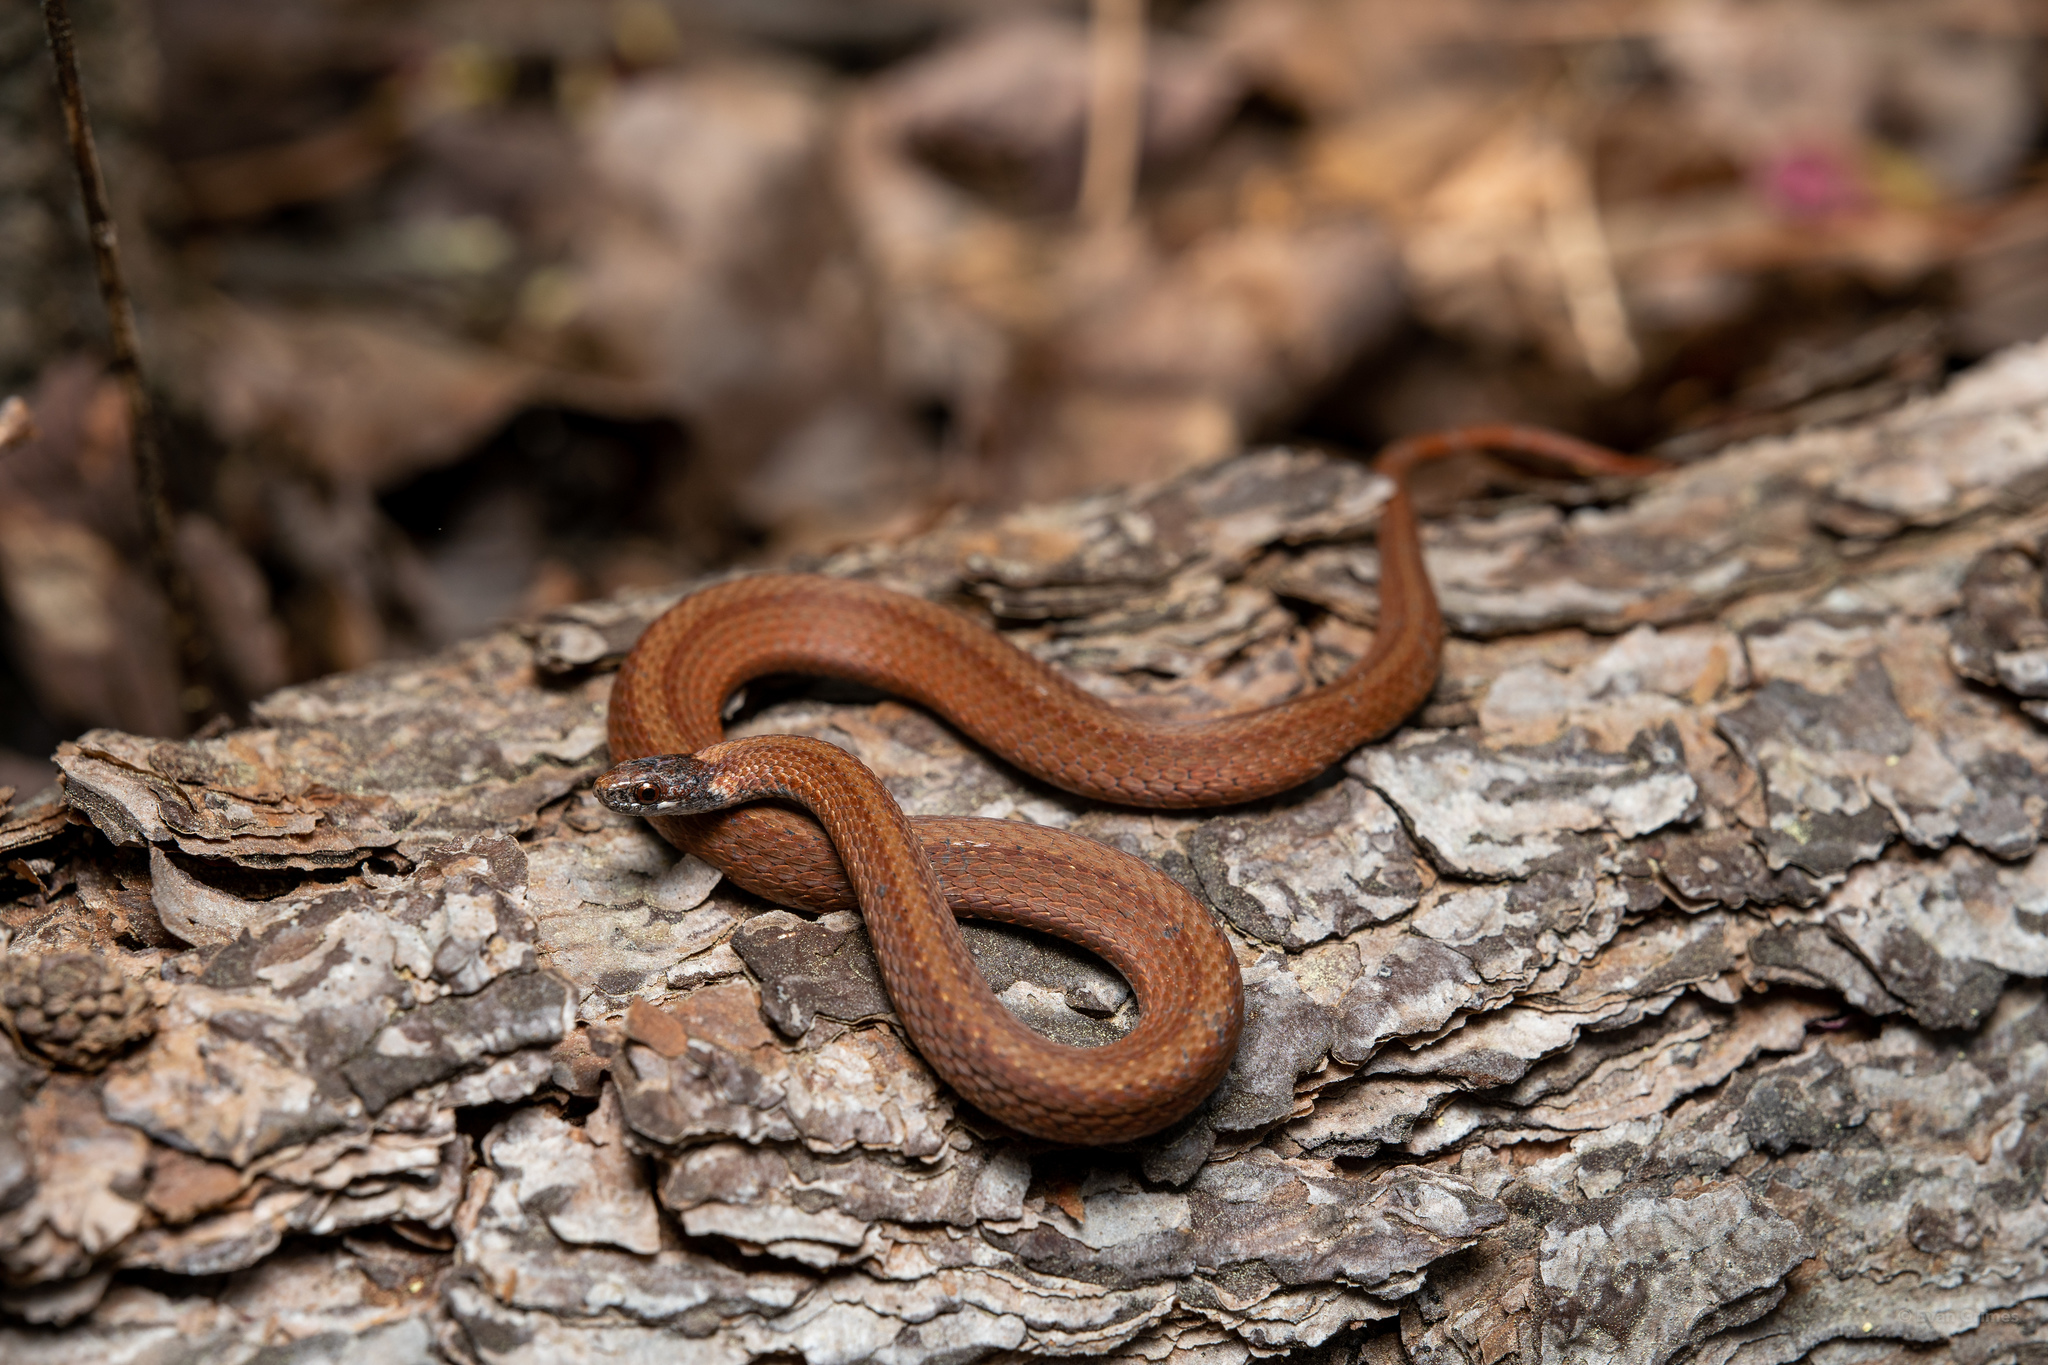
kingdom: Animalia
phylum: Chordata
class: Squamata
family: Colubridae
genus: Storeria
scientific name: Storeria occipitomaculata
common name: Redbelly snake
